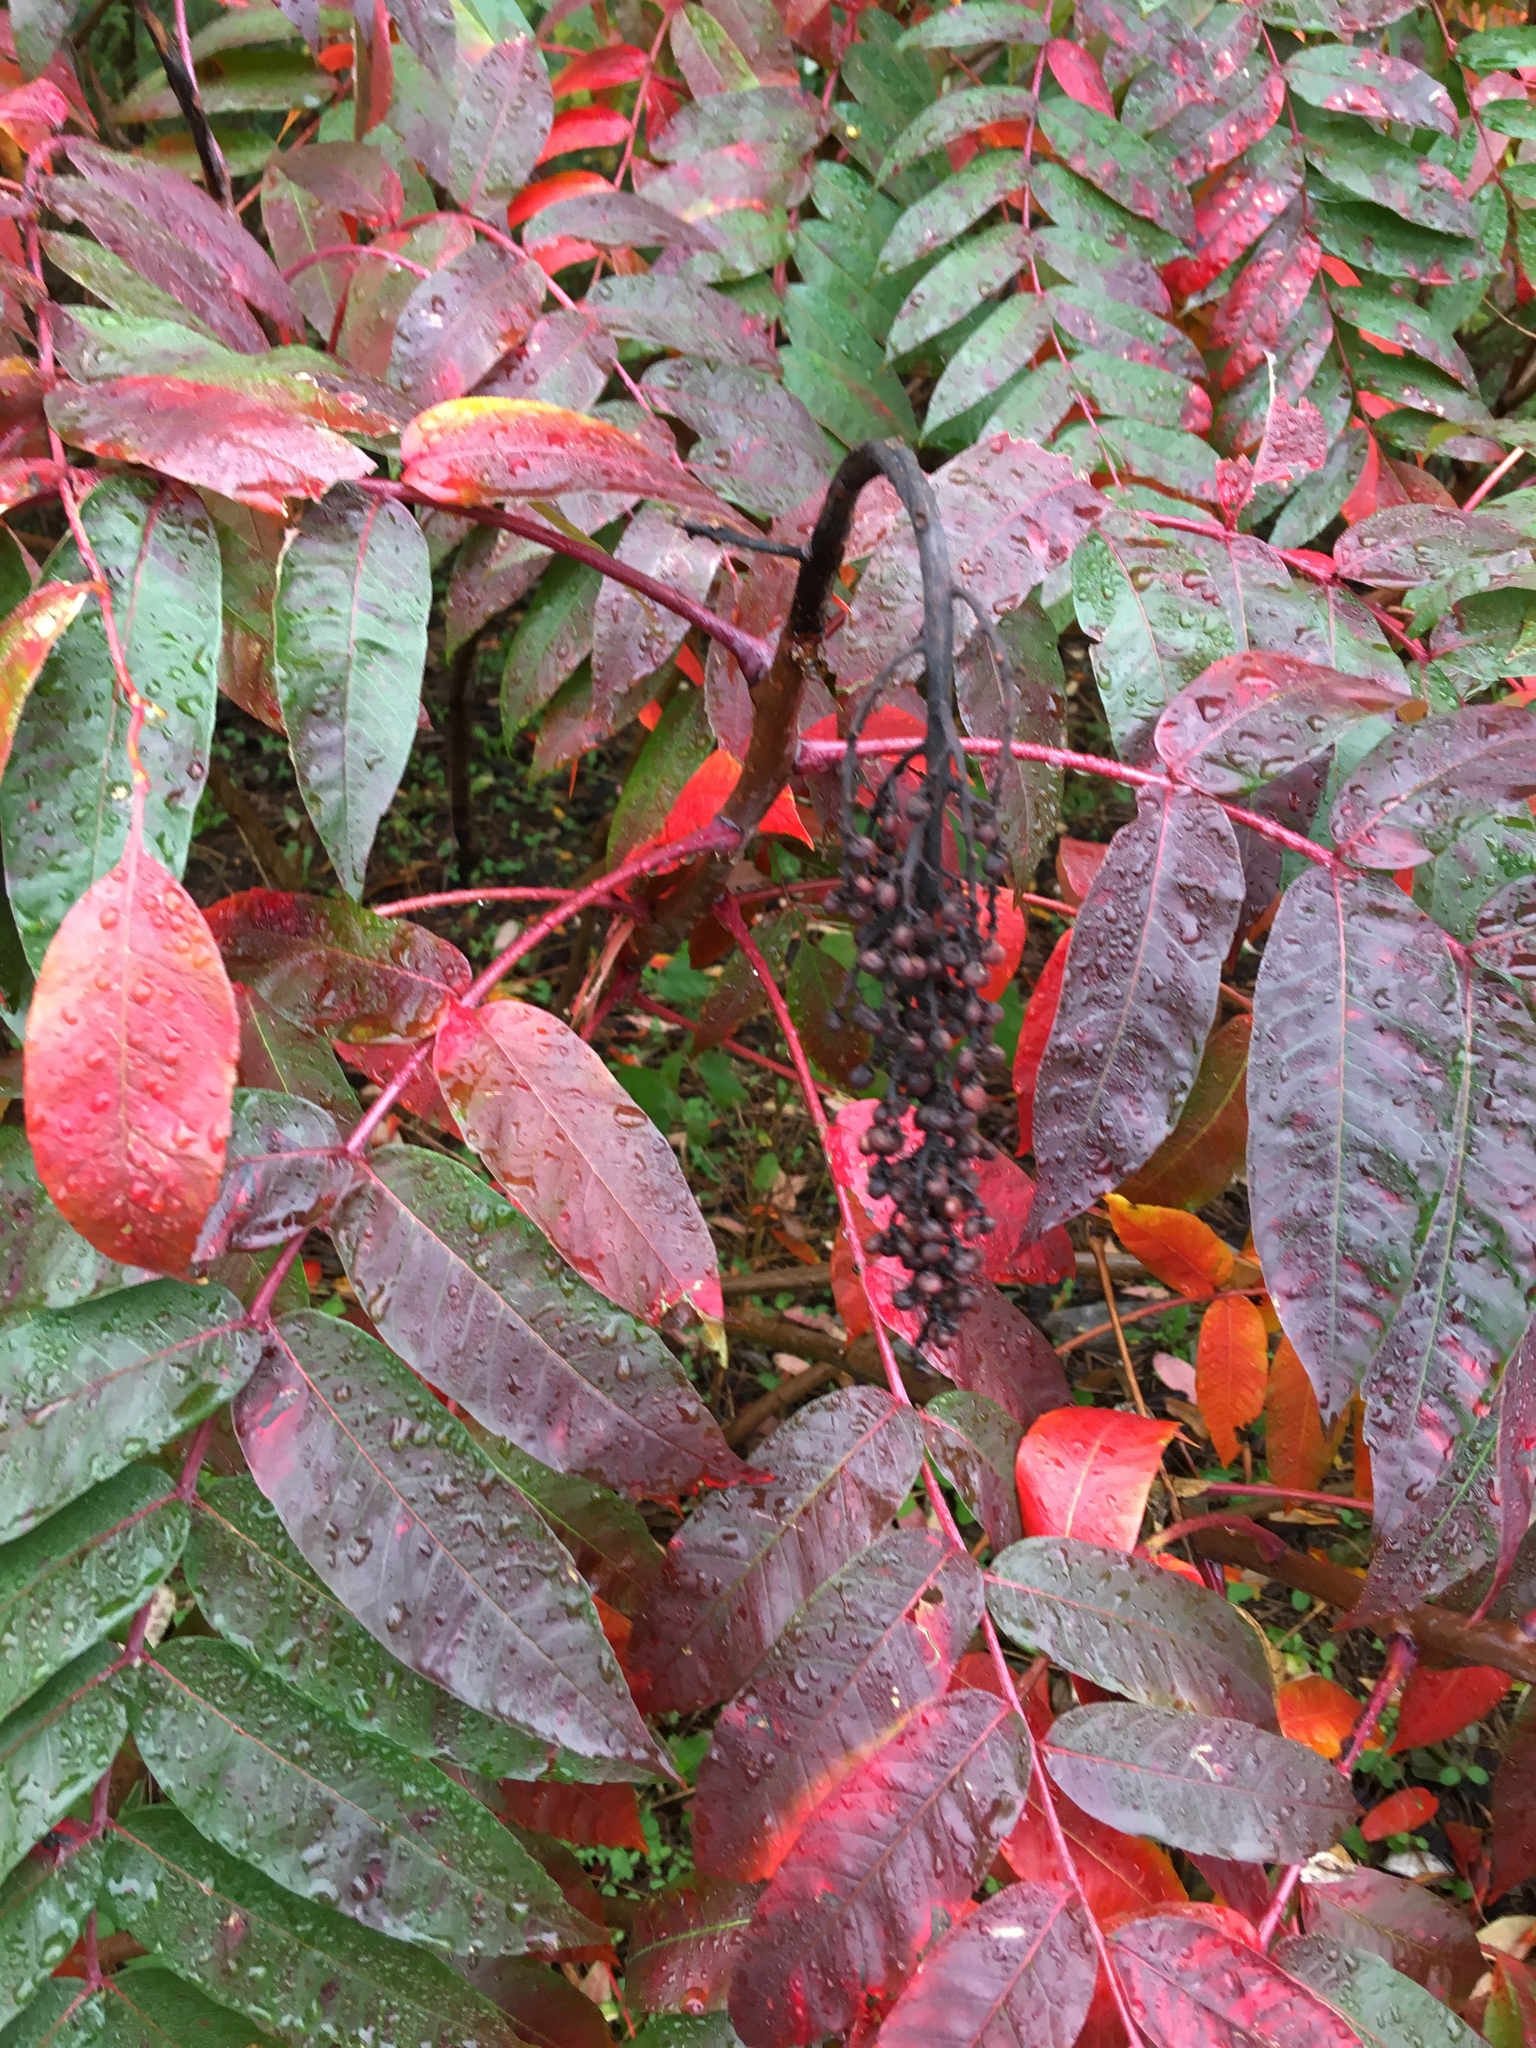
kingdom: Plantae
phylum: Tracheophyta
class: Magnoliopsida
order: Sapindales
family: Anacardiaceae
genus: Rhus
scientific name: Rhus glabra
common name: Scarlet sumac
